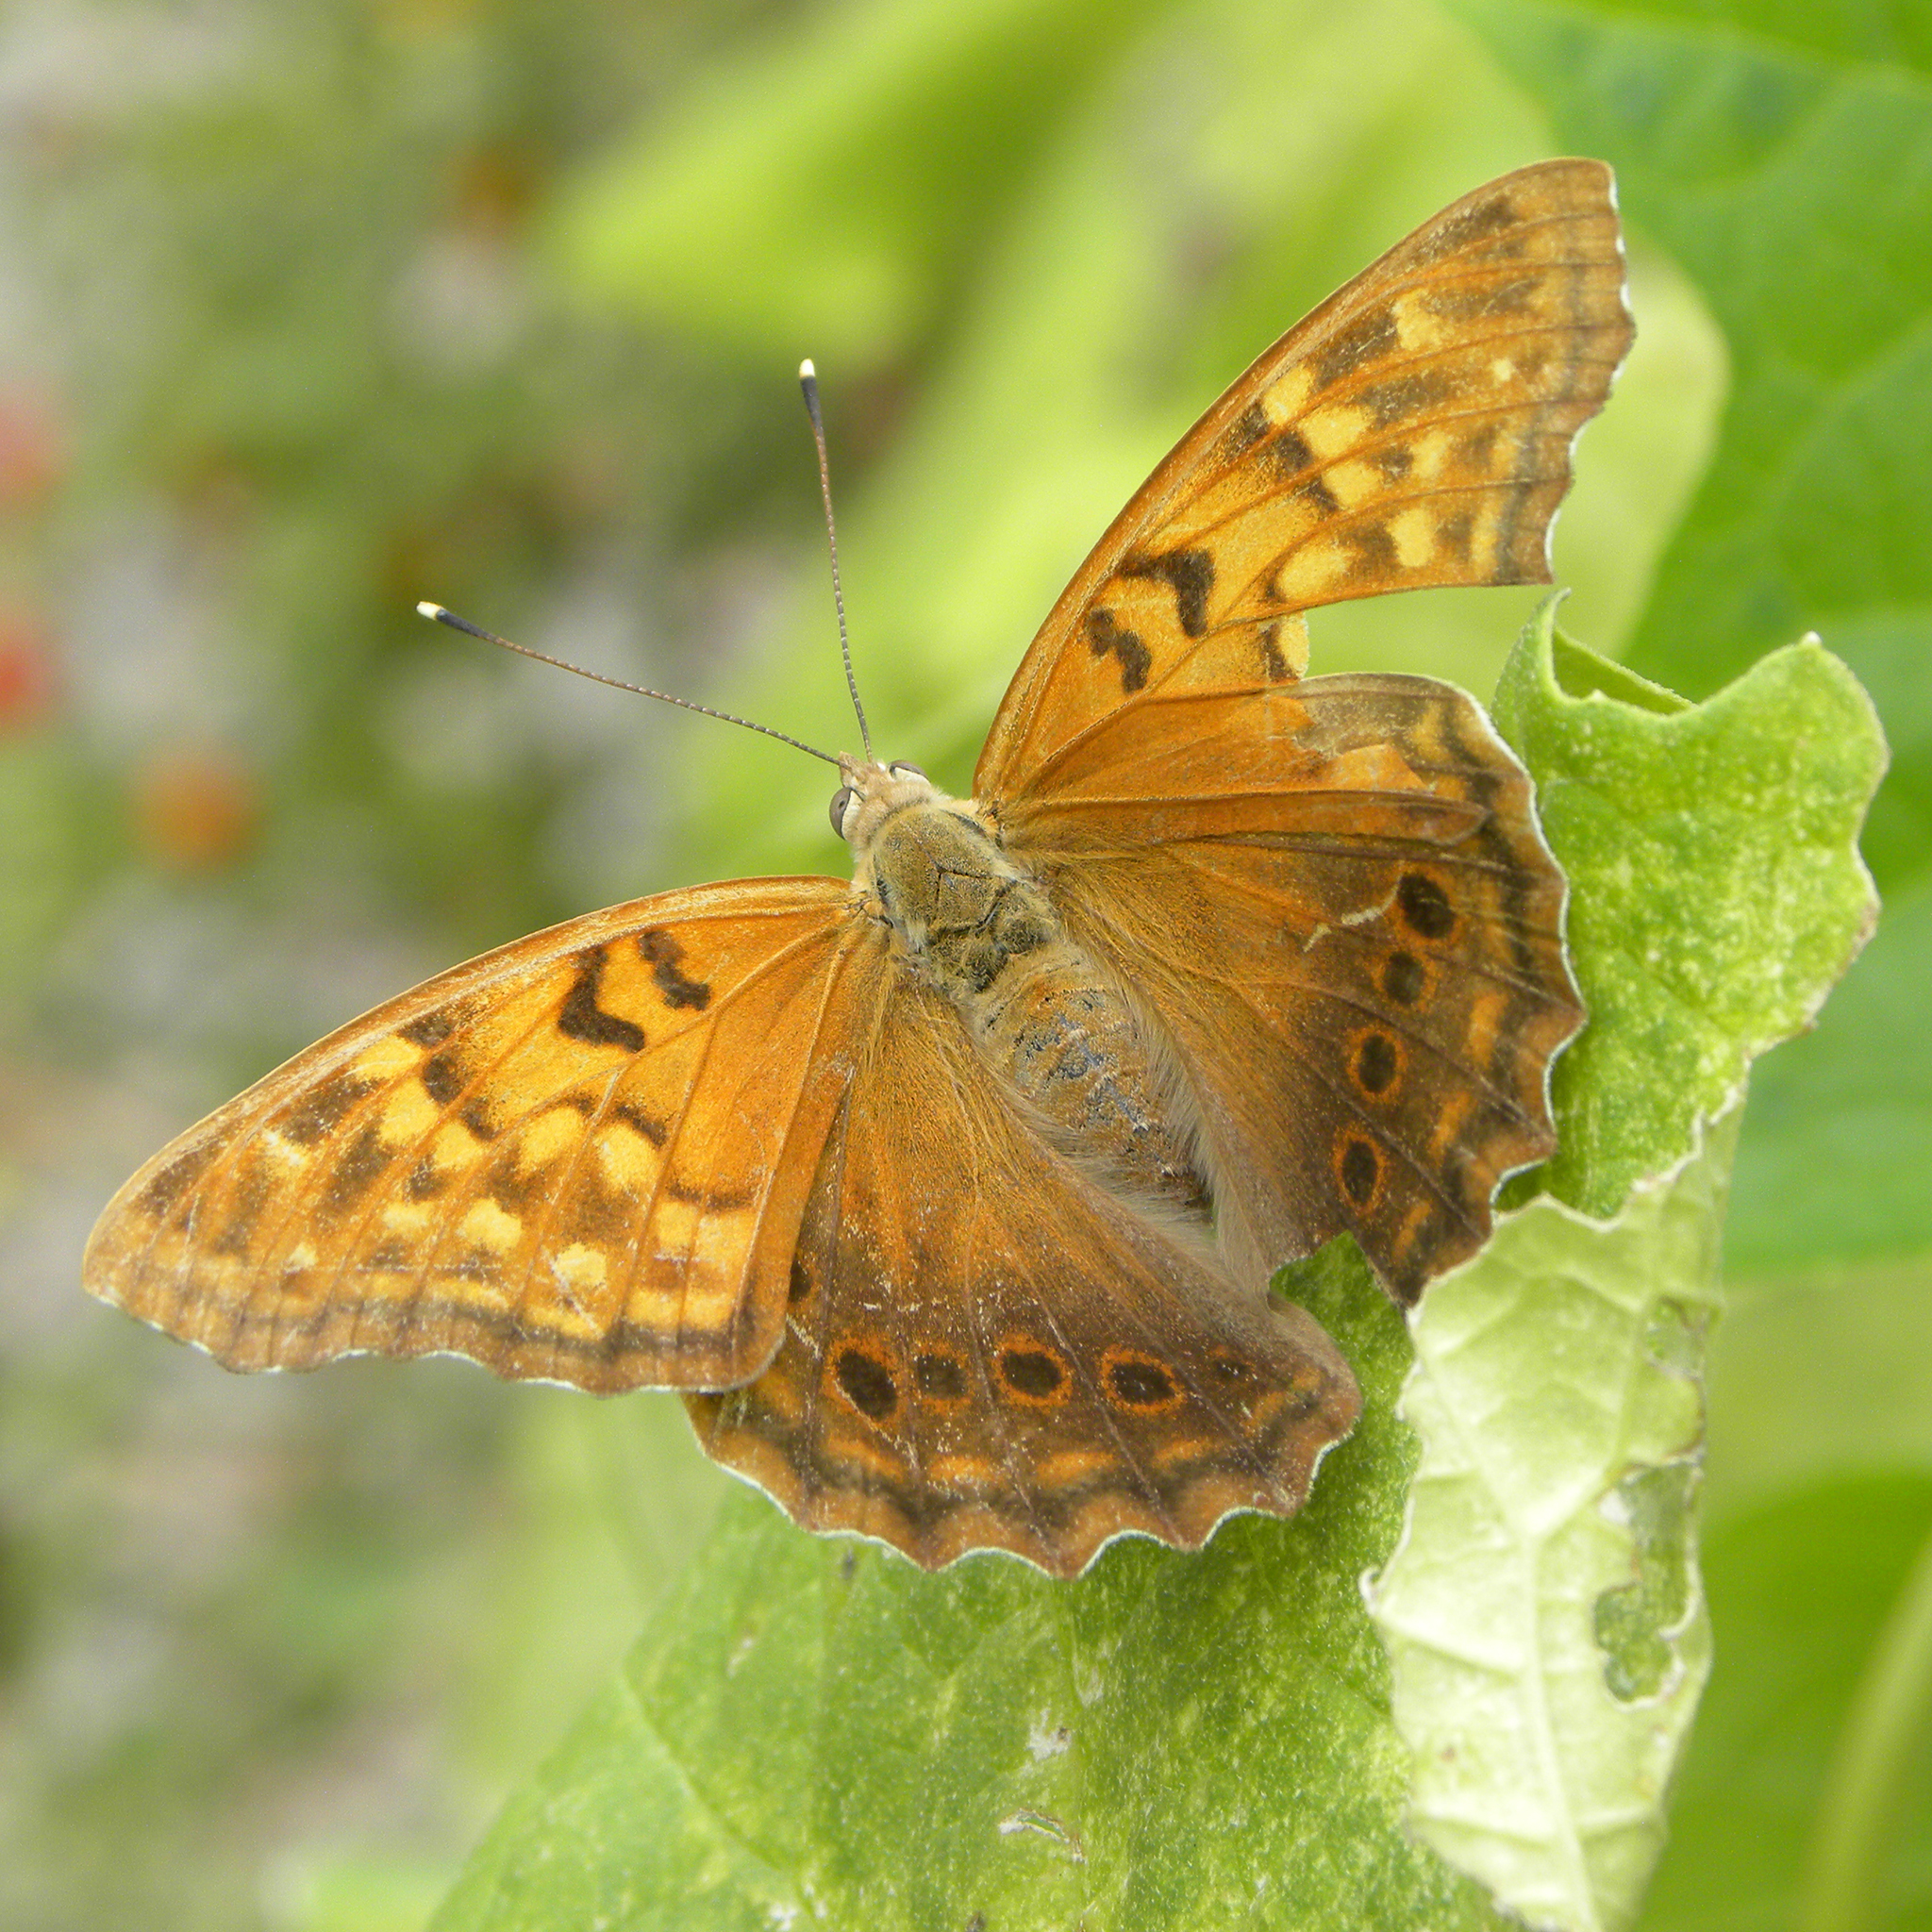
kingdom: Animalia
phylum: Arthropoda
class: Insecta
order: Lepidoptera
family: Nymphalidae
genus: Asterocampa
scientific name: Asterocampa clyton
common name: Tawny emperor
